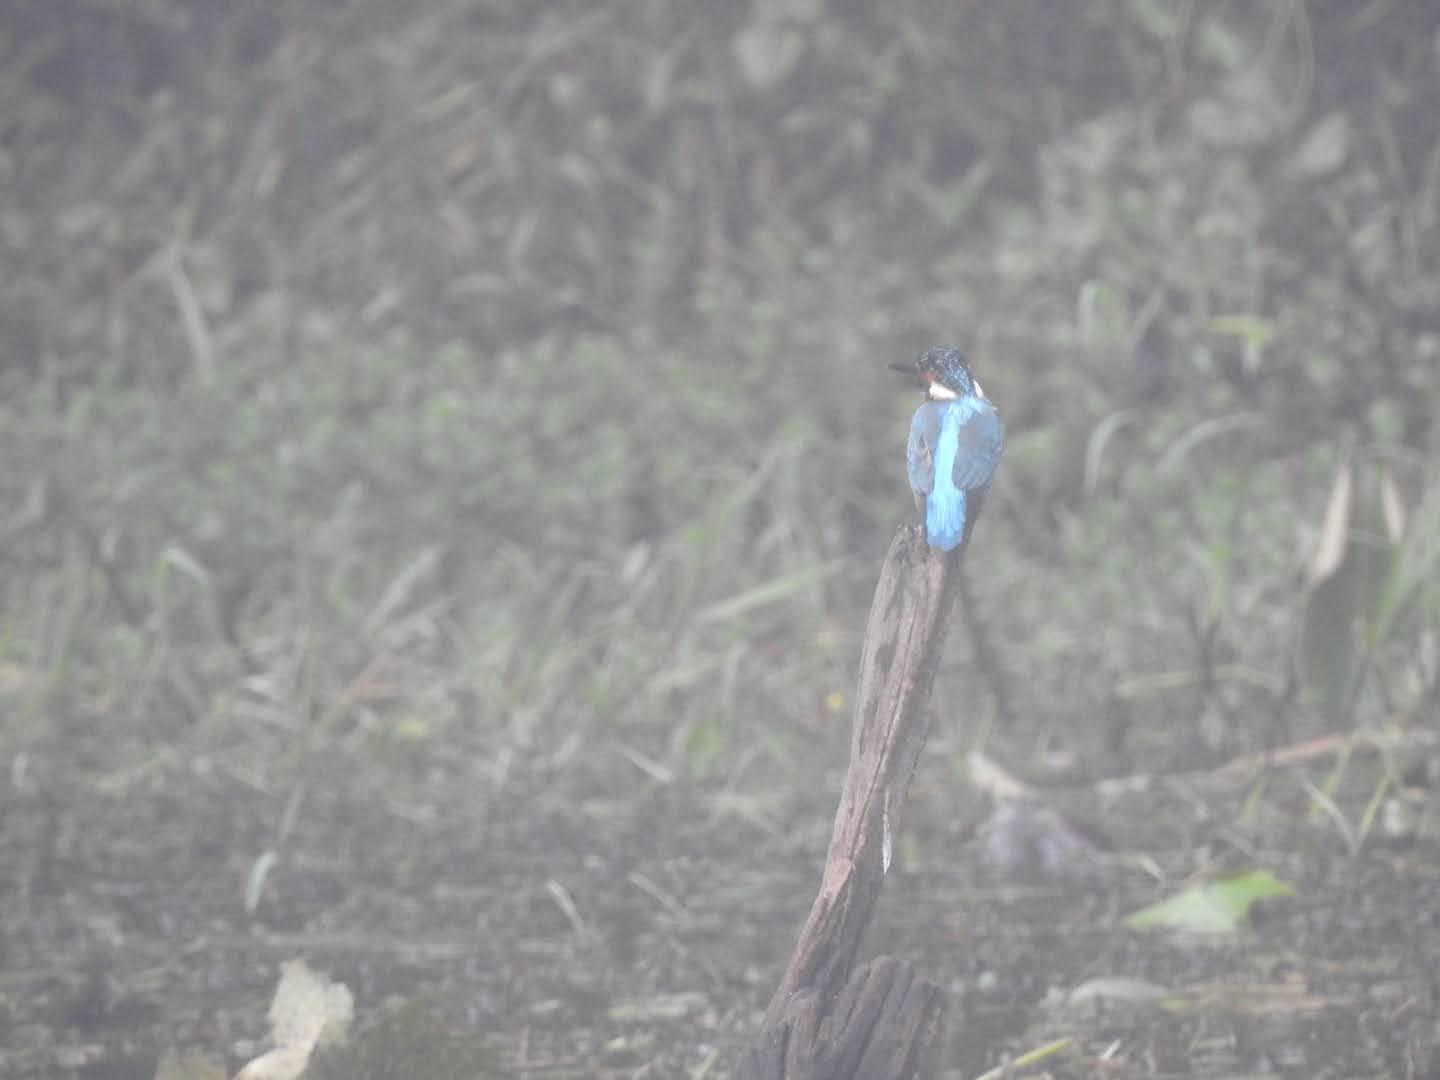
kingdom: Animalia
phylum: Chordata
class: Aves
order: Coraciiformes
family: Alcedinidae
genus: Alcedo
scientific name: Alcedo atthis
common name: Common kingfisher
